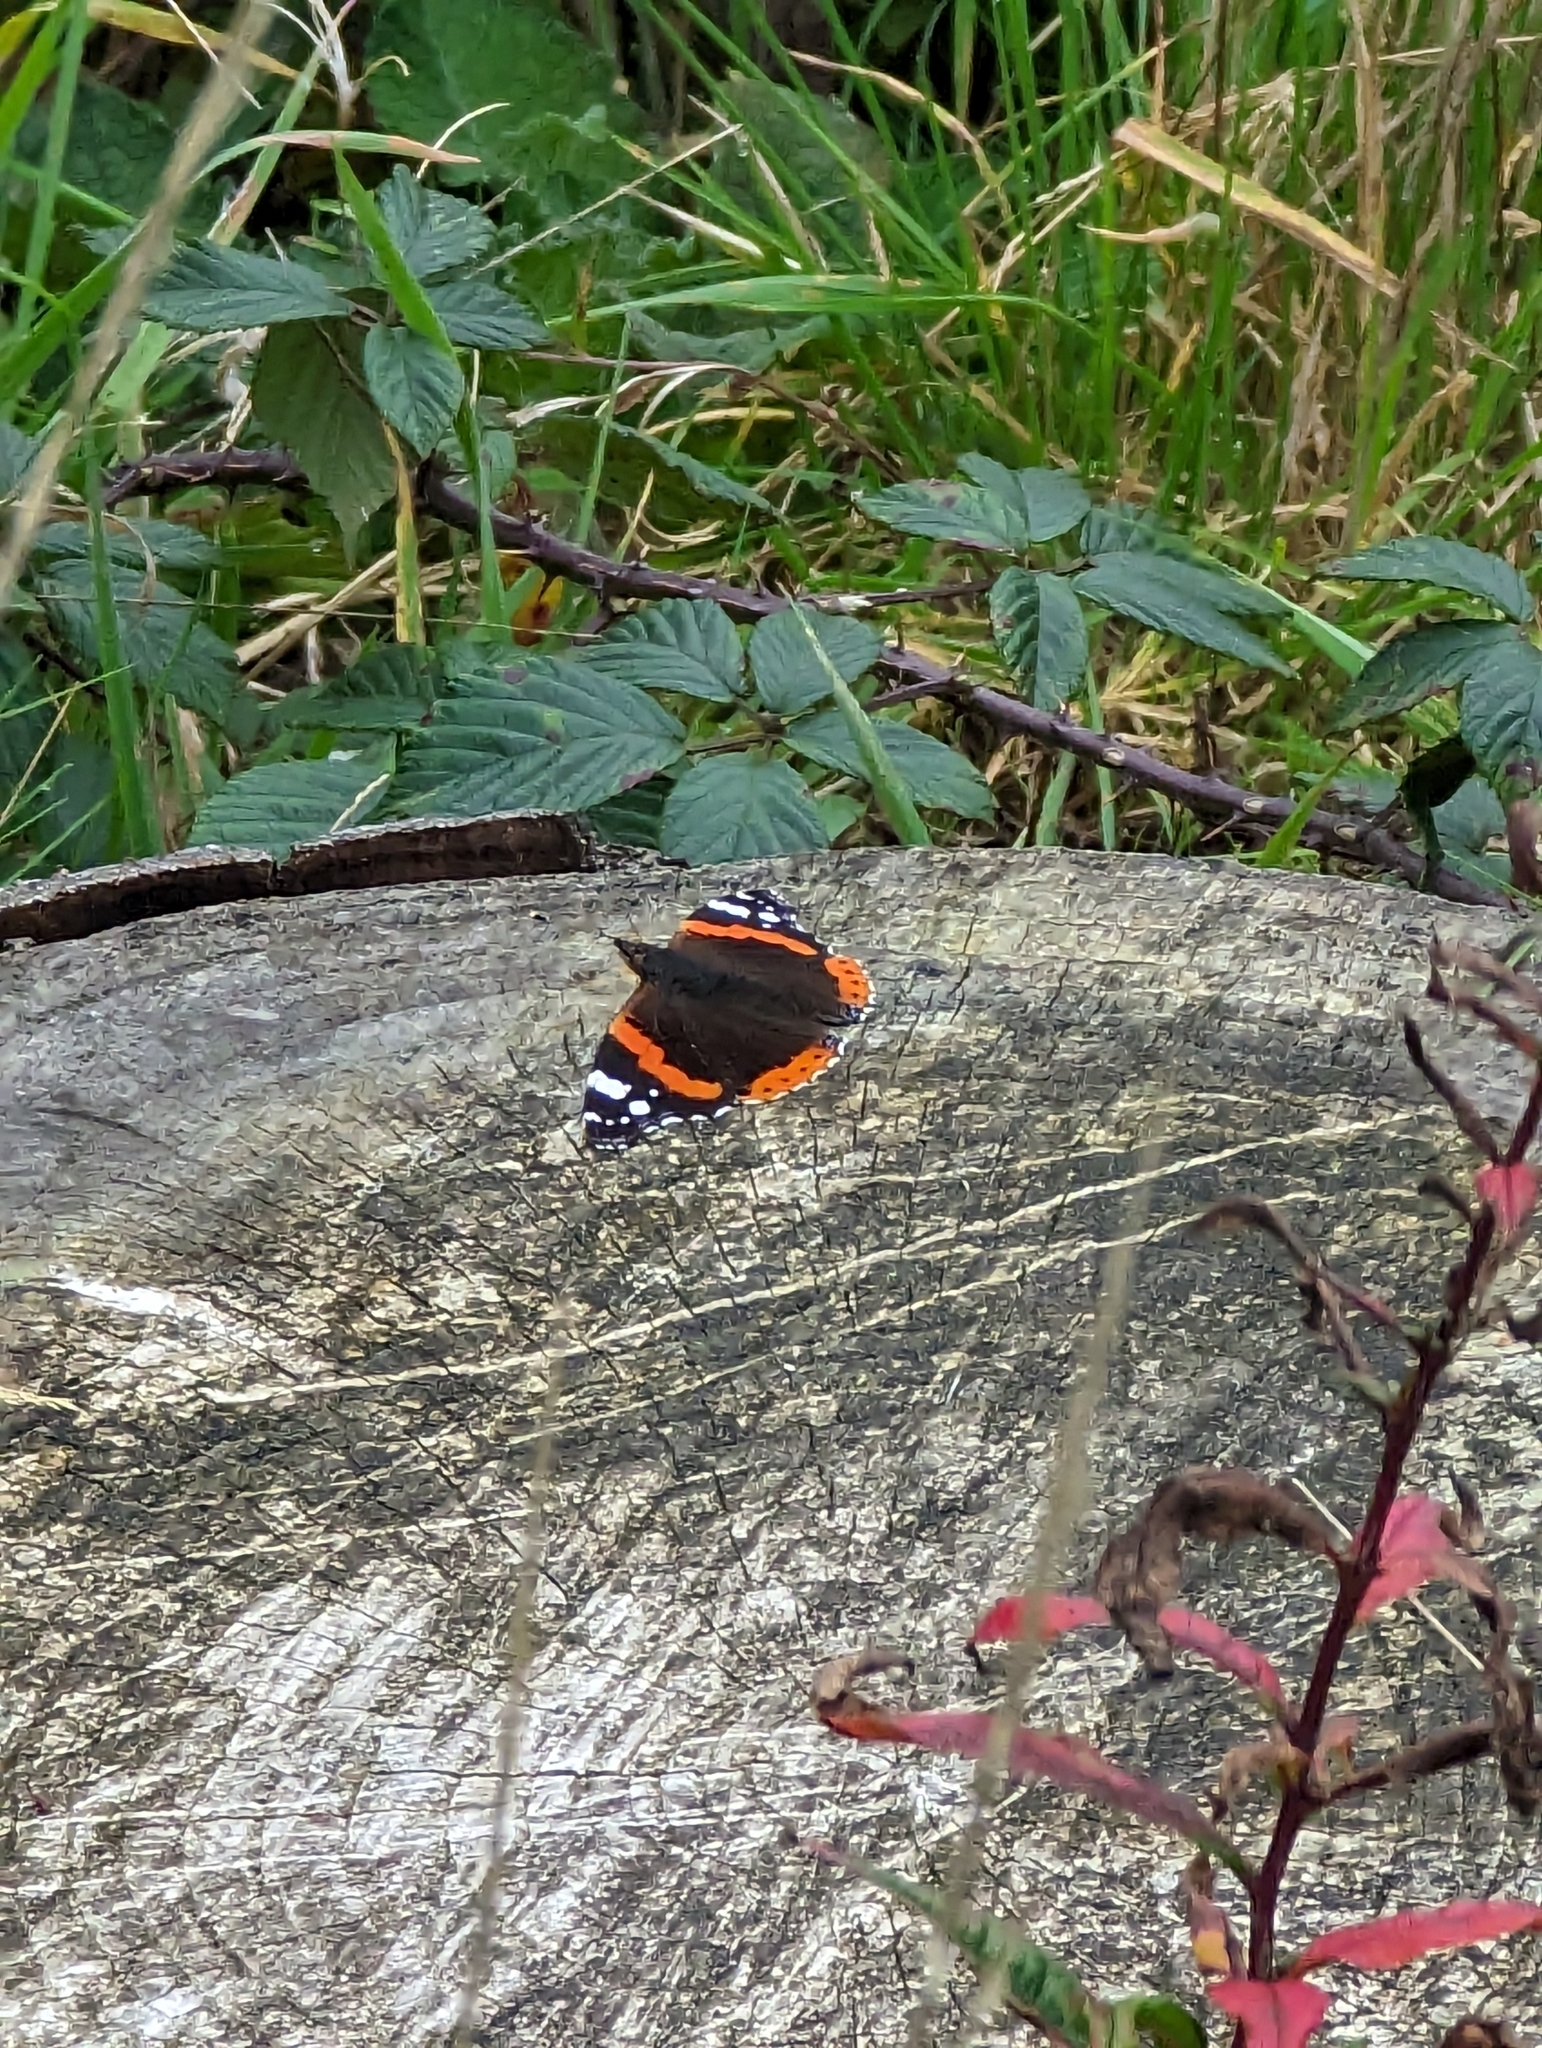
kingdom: Animalia
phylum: Arthropoda
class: Insecta
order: Lepidoptera
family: Nymphalidae
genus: Vanessa
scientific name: Vanessa atalanta
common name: Red admiral
